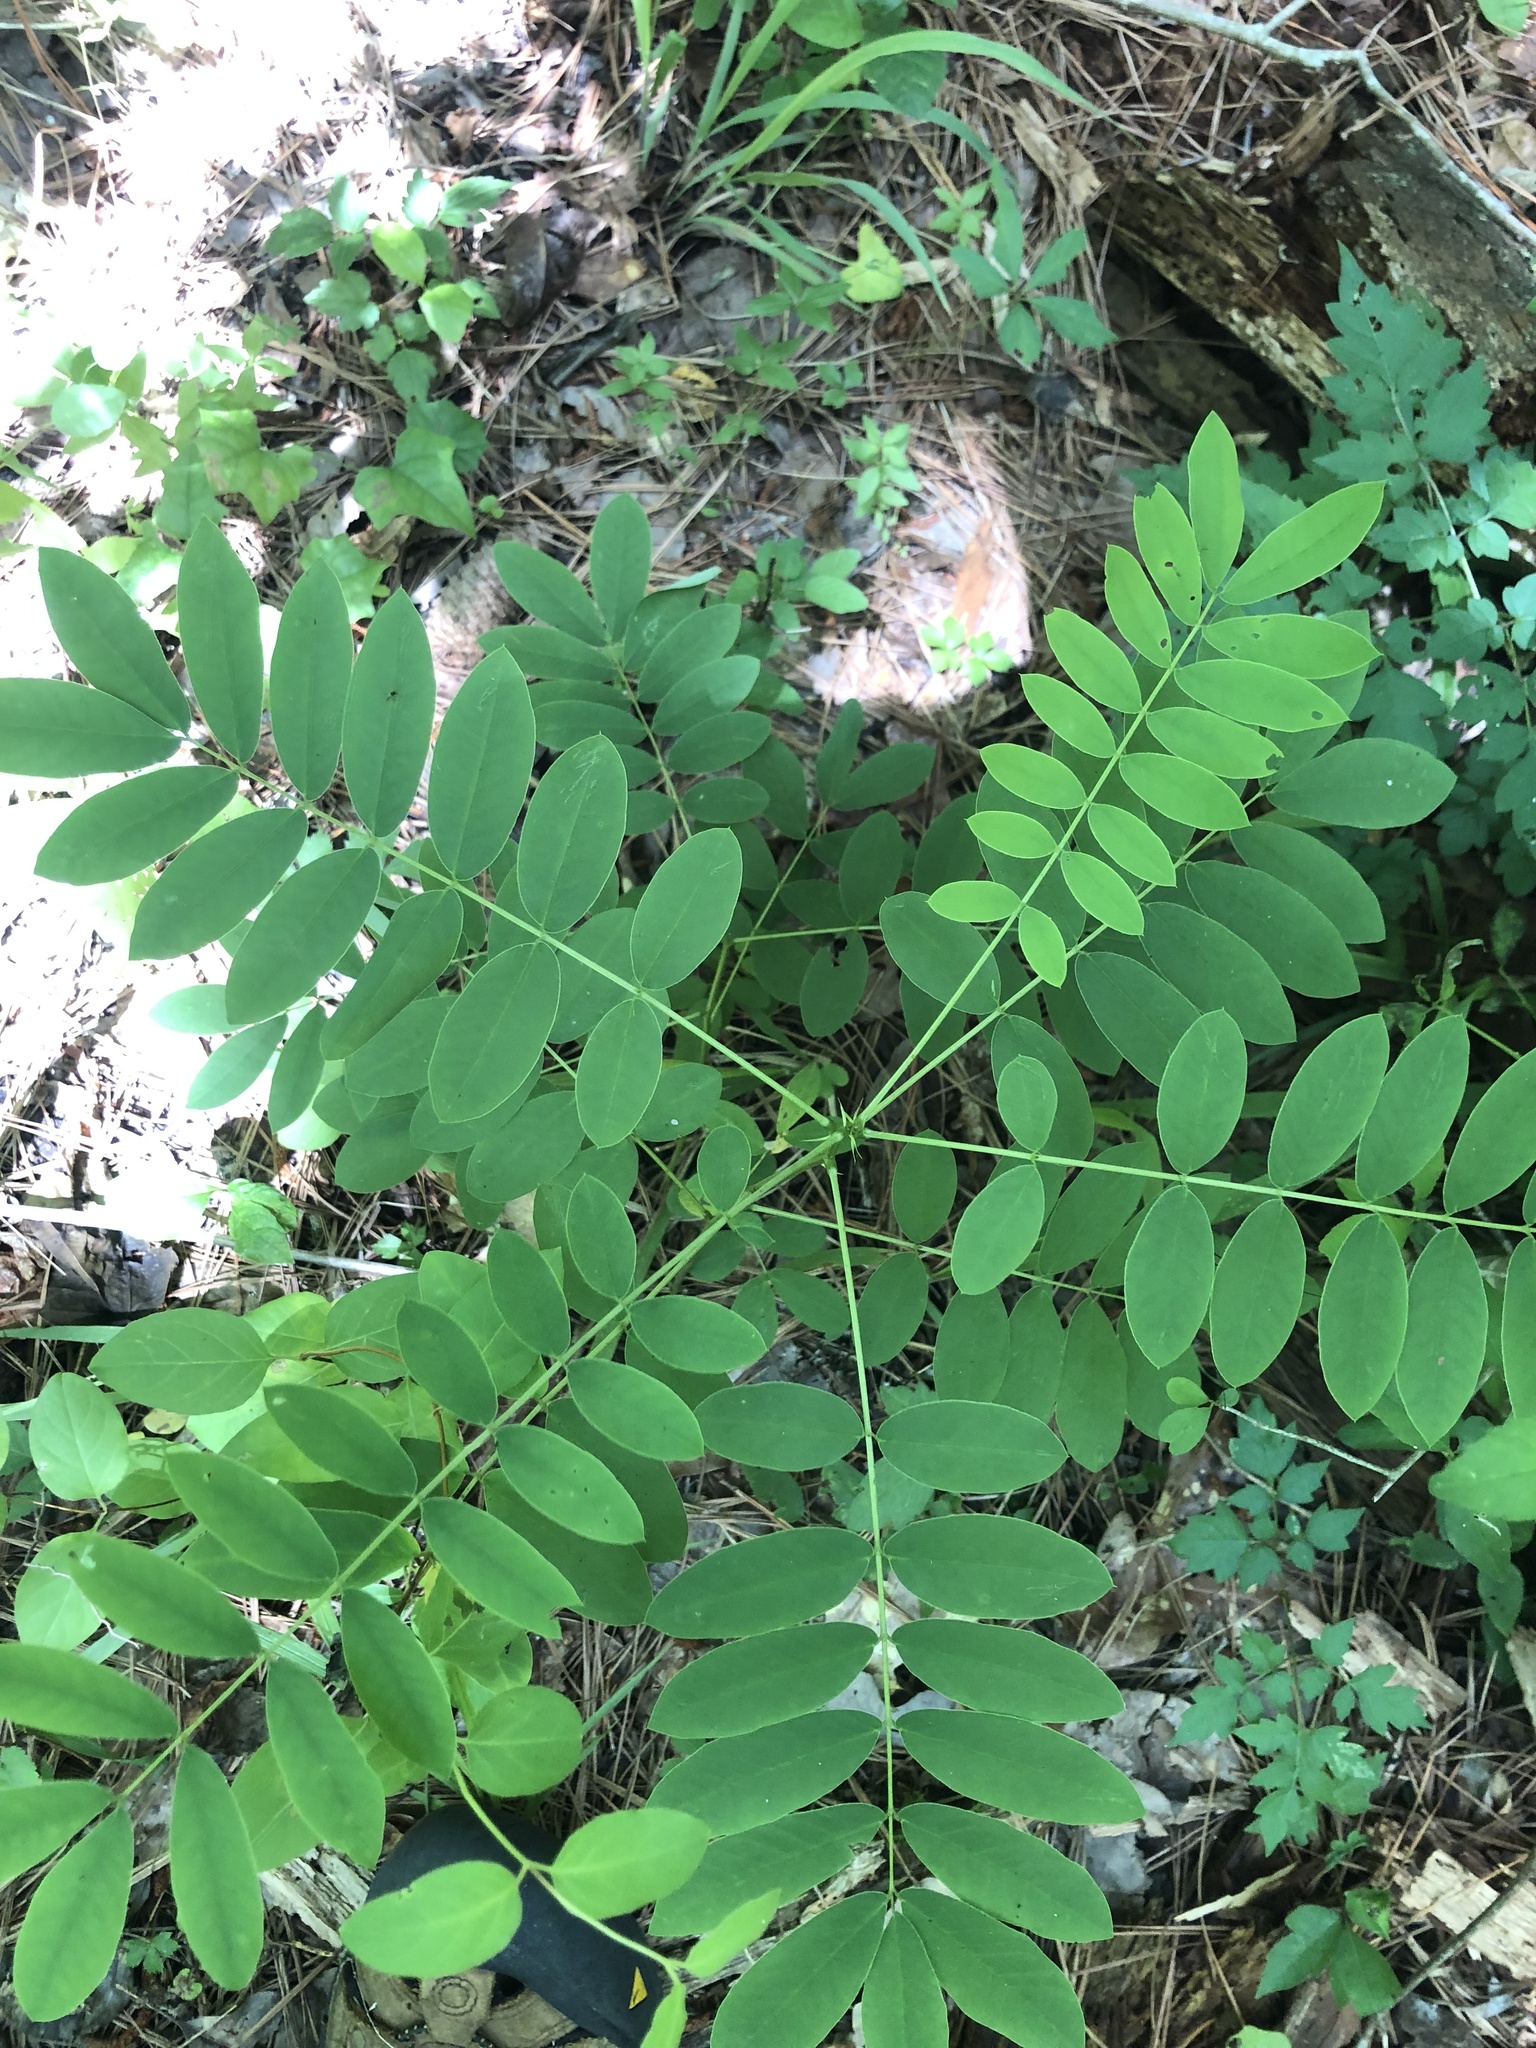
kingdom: Plantae
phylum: Tracheophyta
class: Magnoliopsida
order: Fabales
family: Fabaceae
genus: Senna
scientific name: Senna marilandica
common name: American senna
